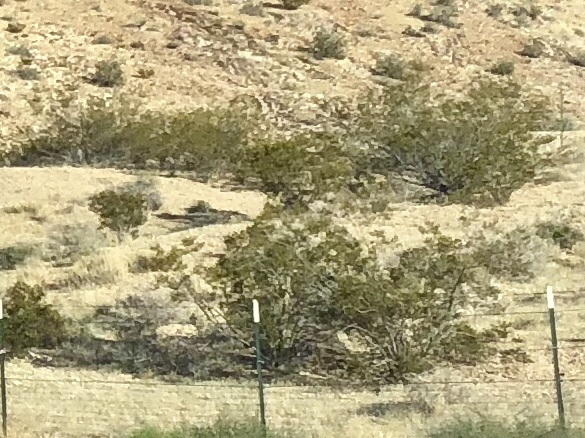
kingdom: Plantae
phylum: Tracheophyta
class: Magnoliopsida
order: Zygophyllales
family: Zygophyllaceae
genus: Larrea
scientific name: Larrea tridentata
